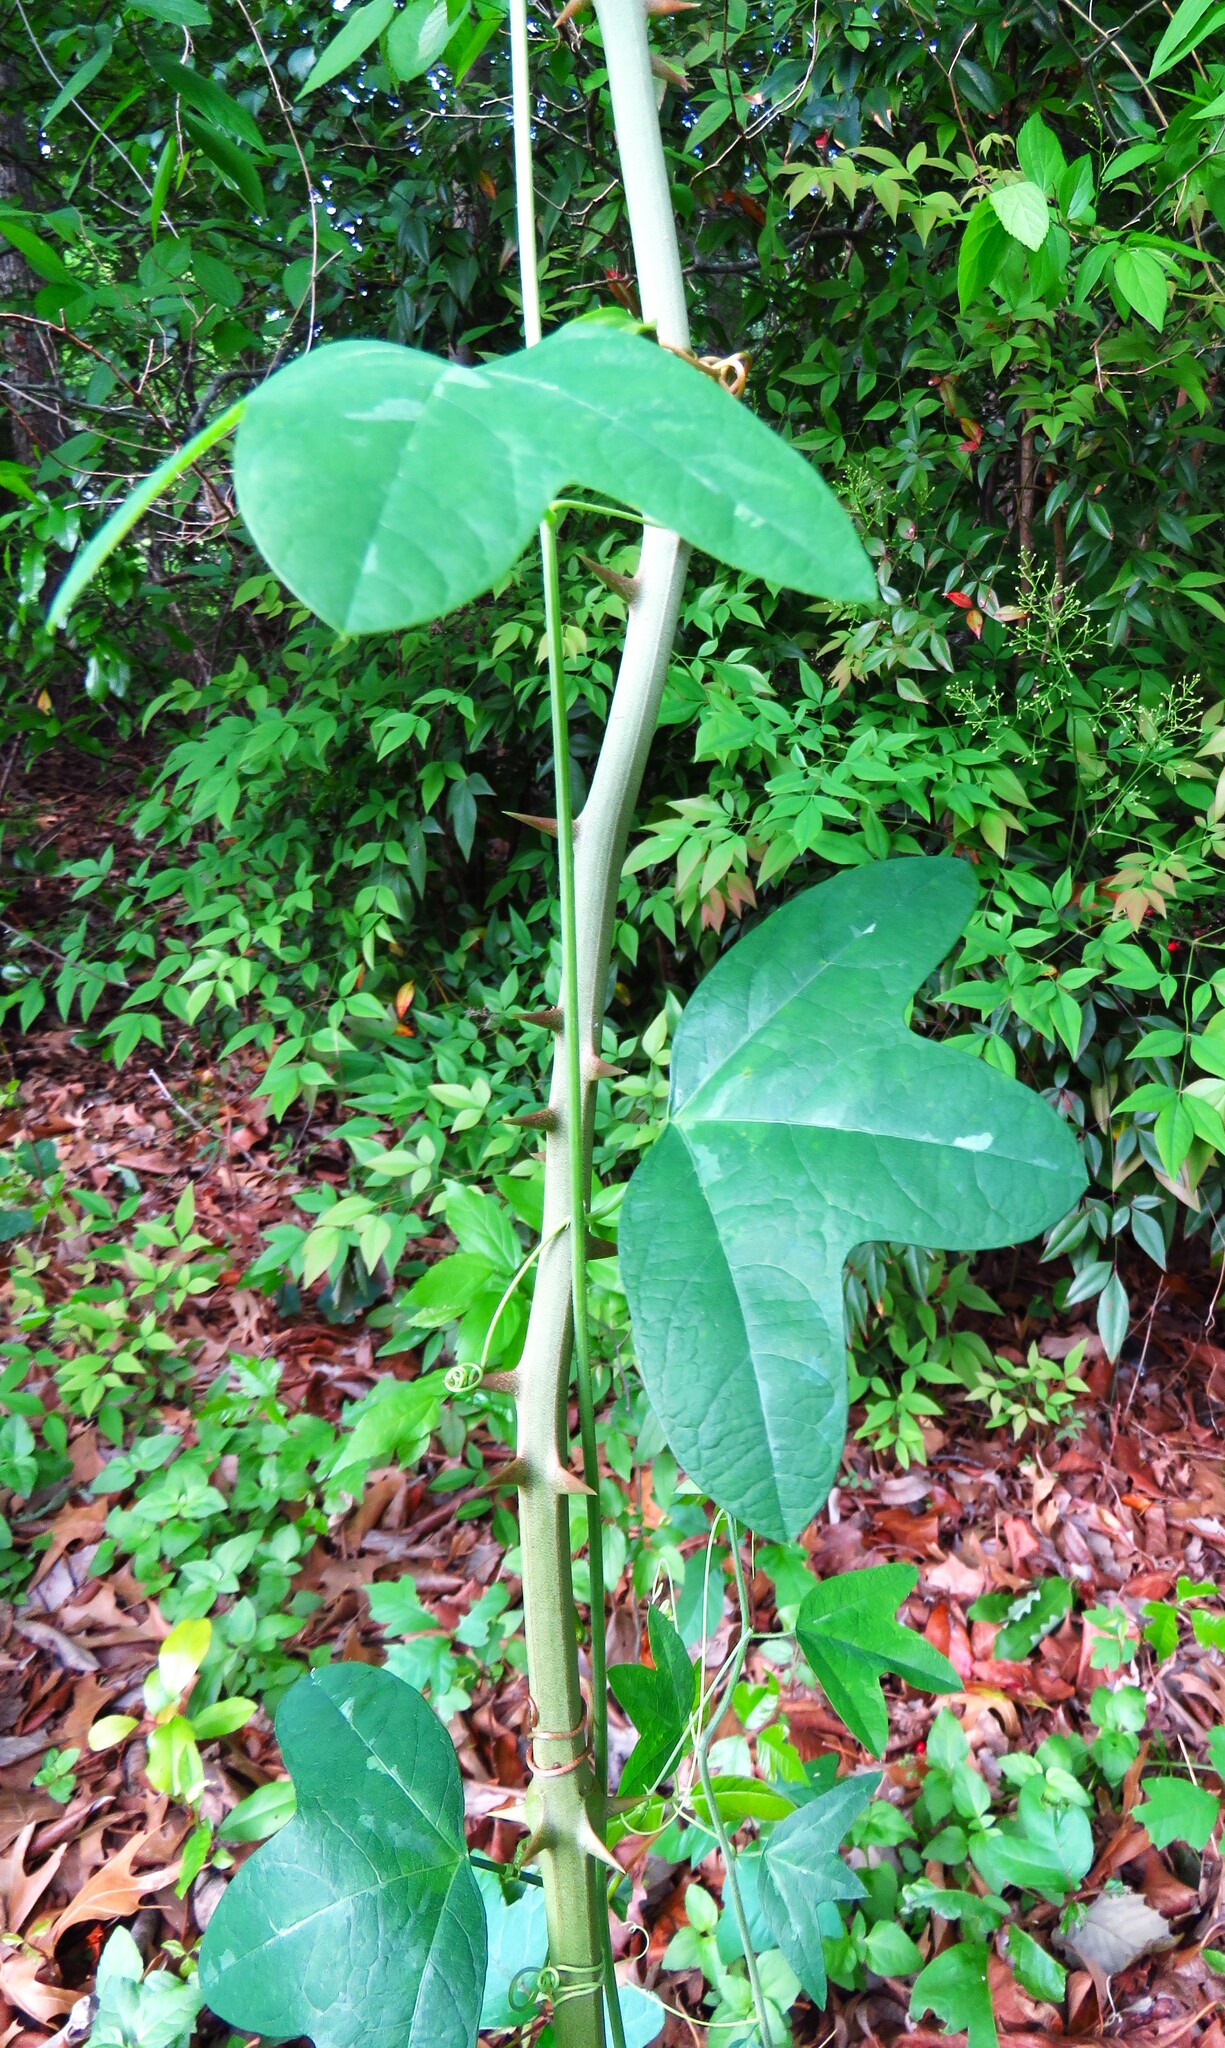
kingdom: Plantae
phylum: Tracheophyta
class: Magnoliopsida
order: Malpighiales
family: Passifloraceae
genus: Passiflora
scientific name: Passiflora lutea
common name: Yellow passionflower
